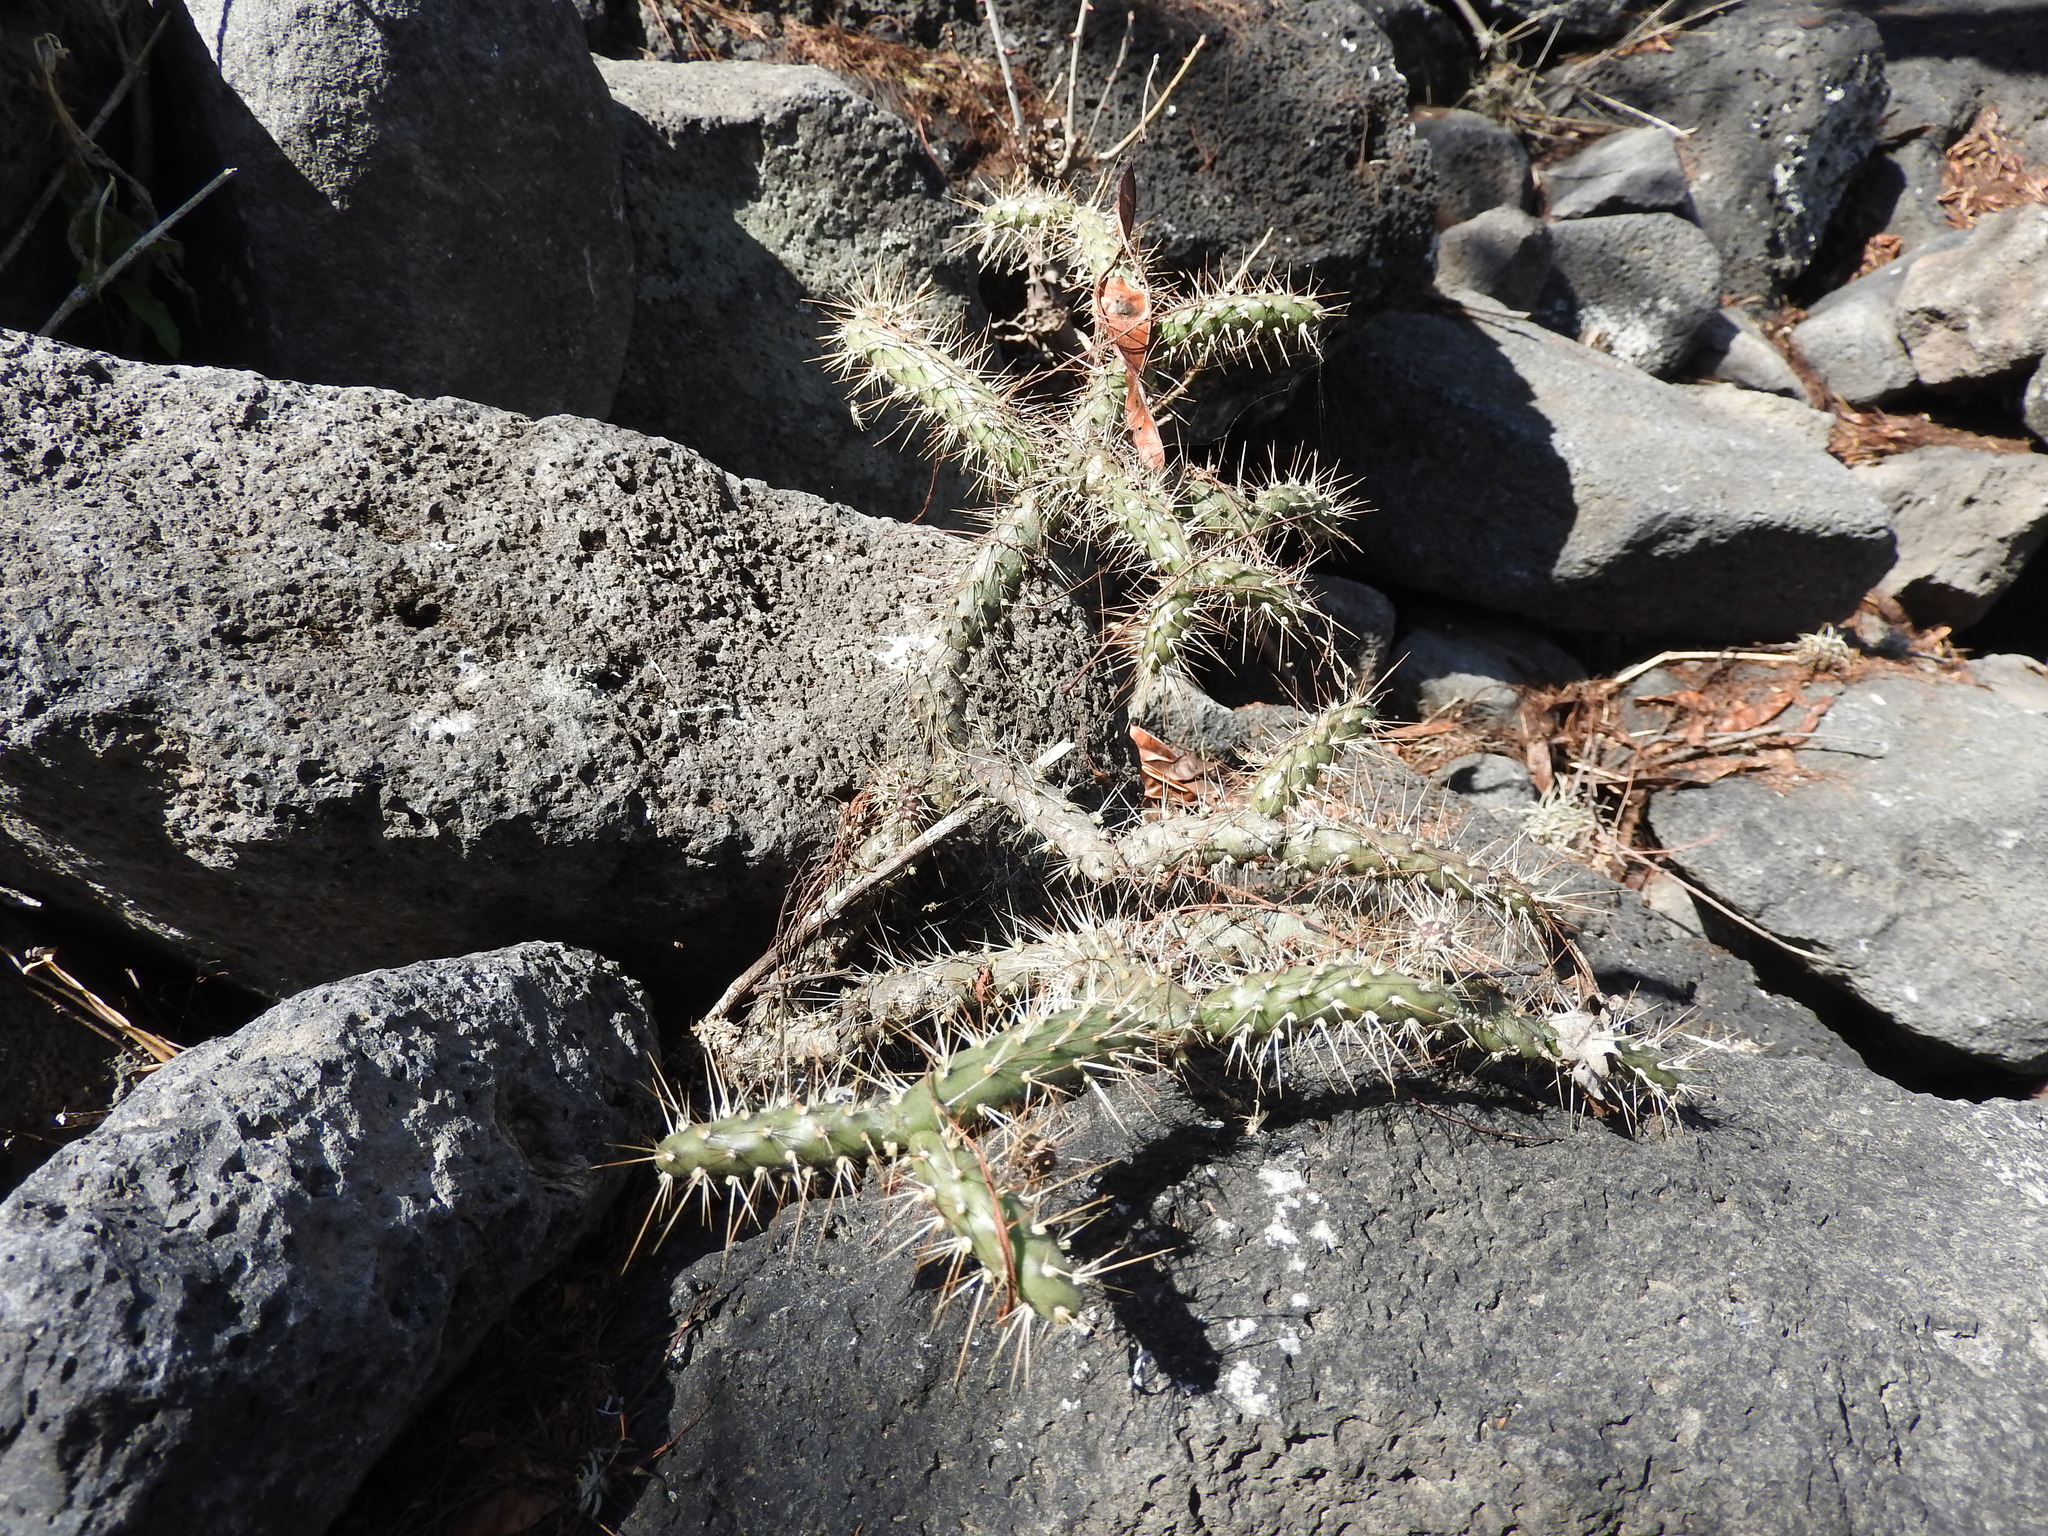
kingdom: Plantae
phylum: Tracheophyta
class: Magnoliopsida
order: Caryophyllales
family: Cactaceae
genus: Opuntia
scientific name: Opuntia pubescens
